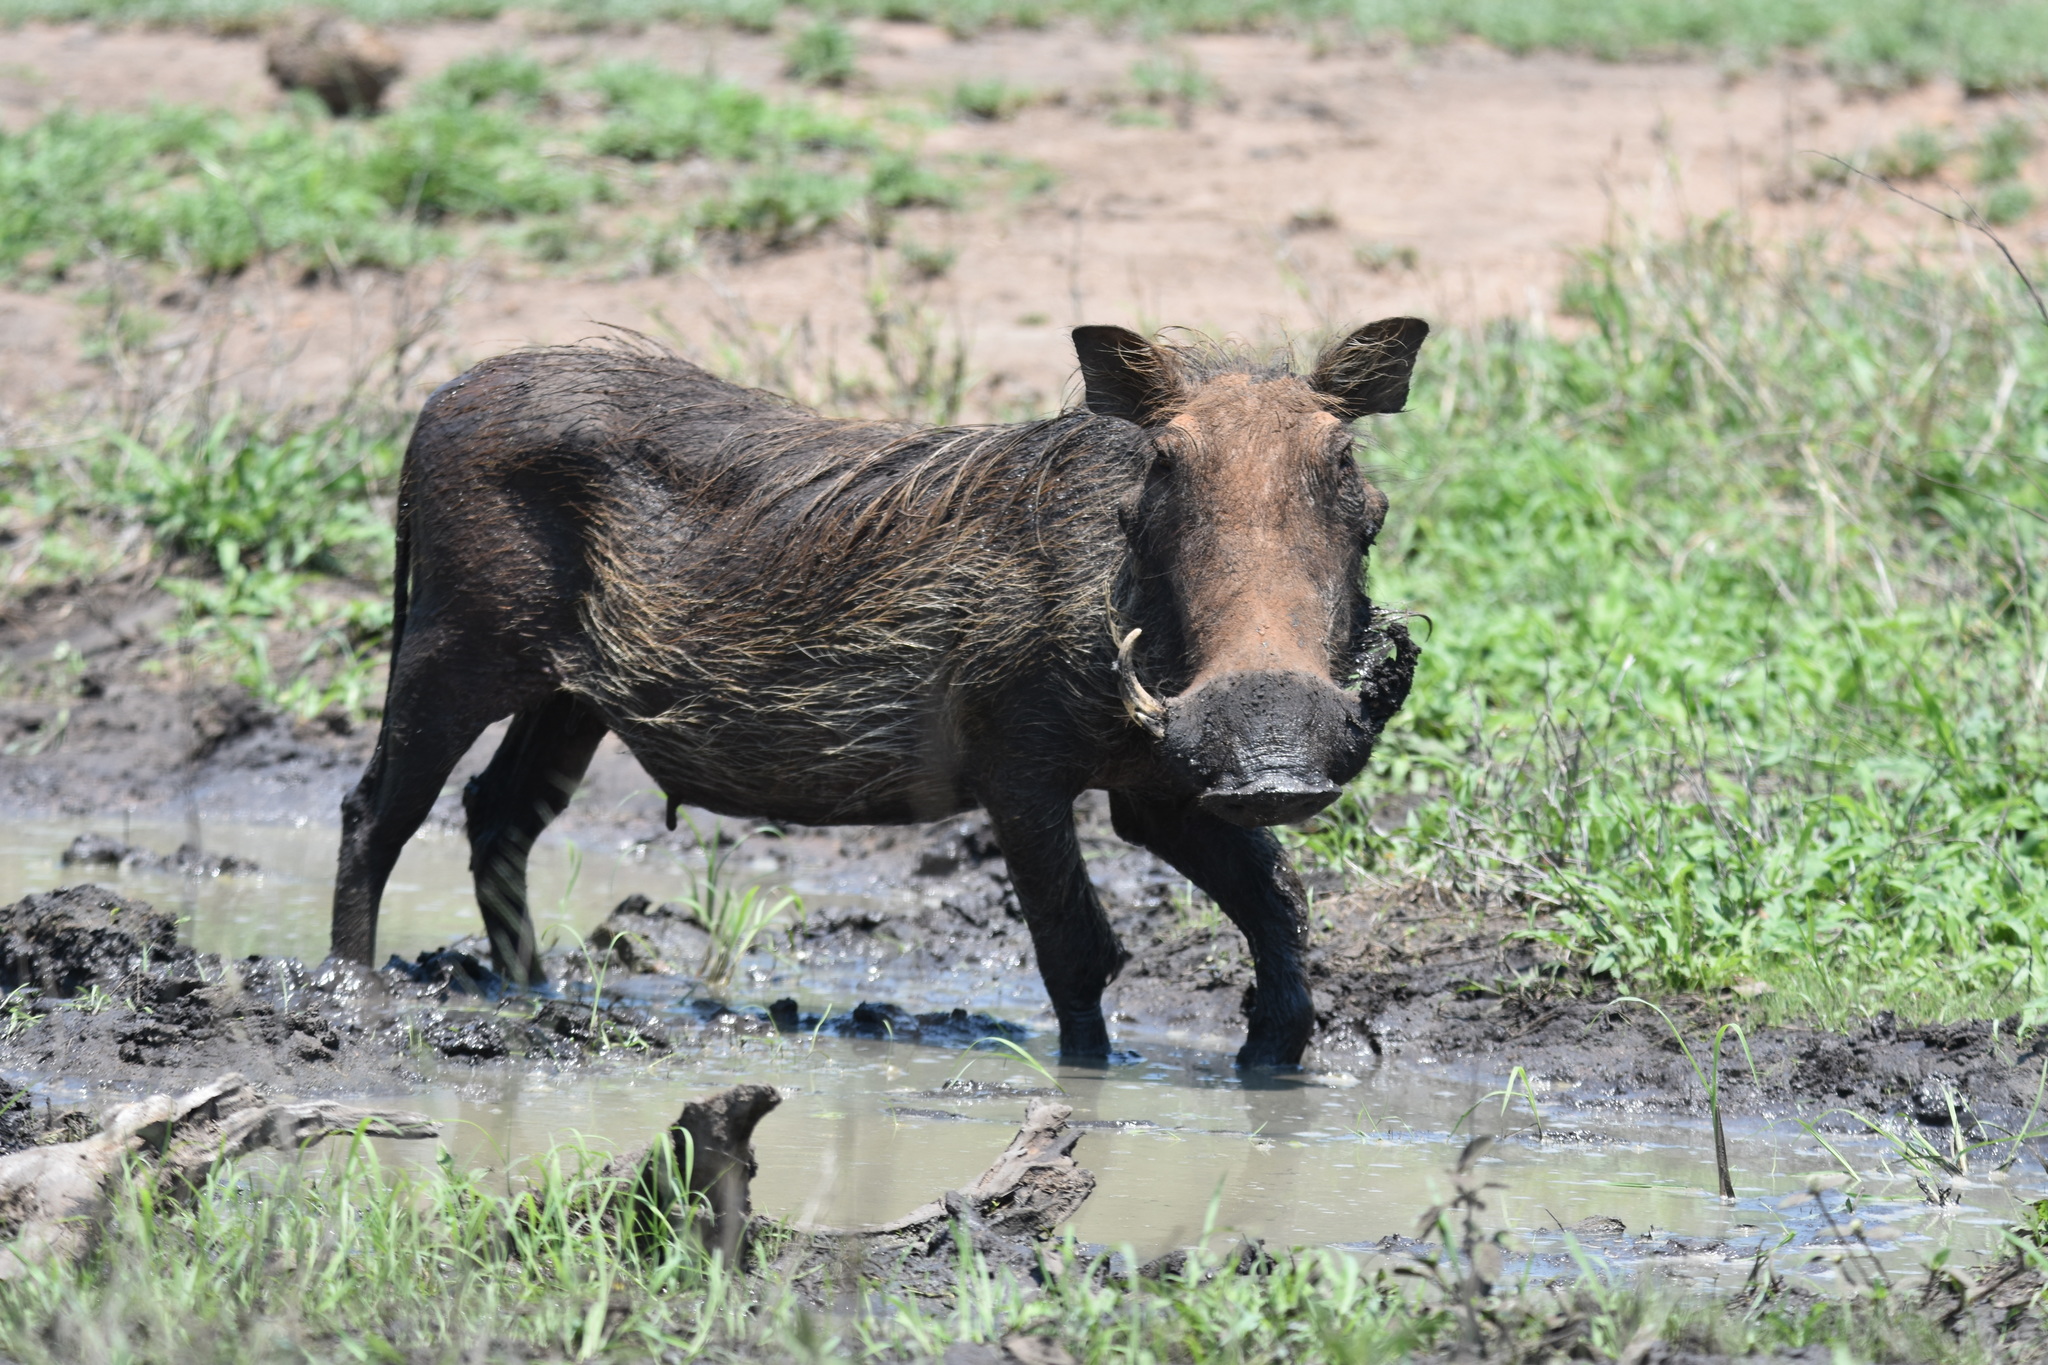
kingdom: Animalia
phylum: Chordata
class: Mammalia
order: Artiodactyla
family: Suidae
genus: Phacochoerus
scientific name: Phacochoerus africanus
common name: Common warthog
